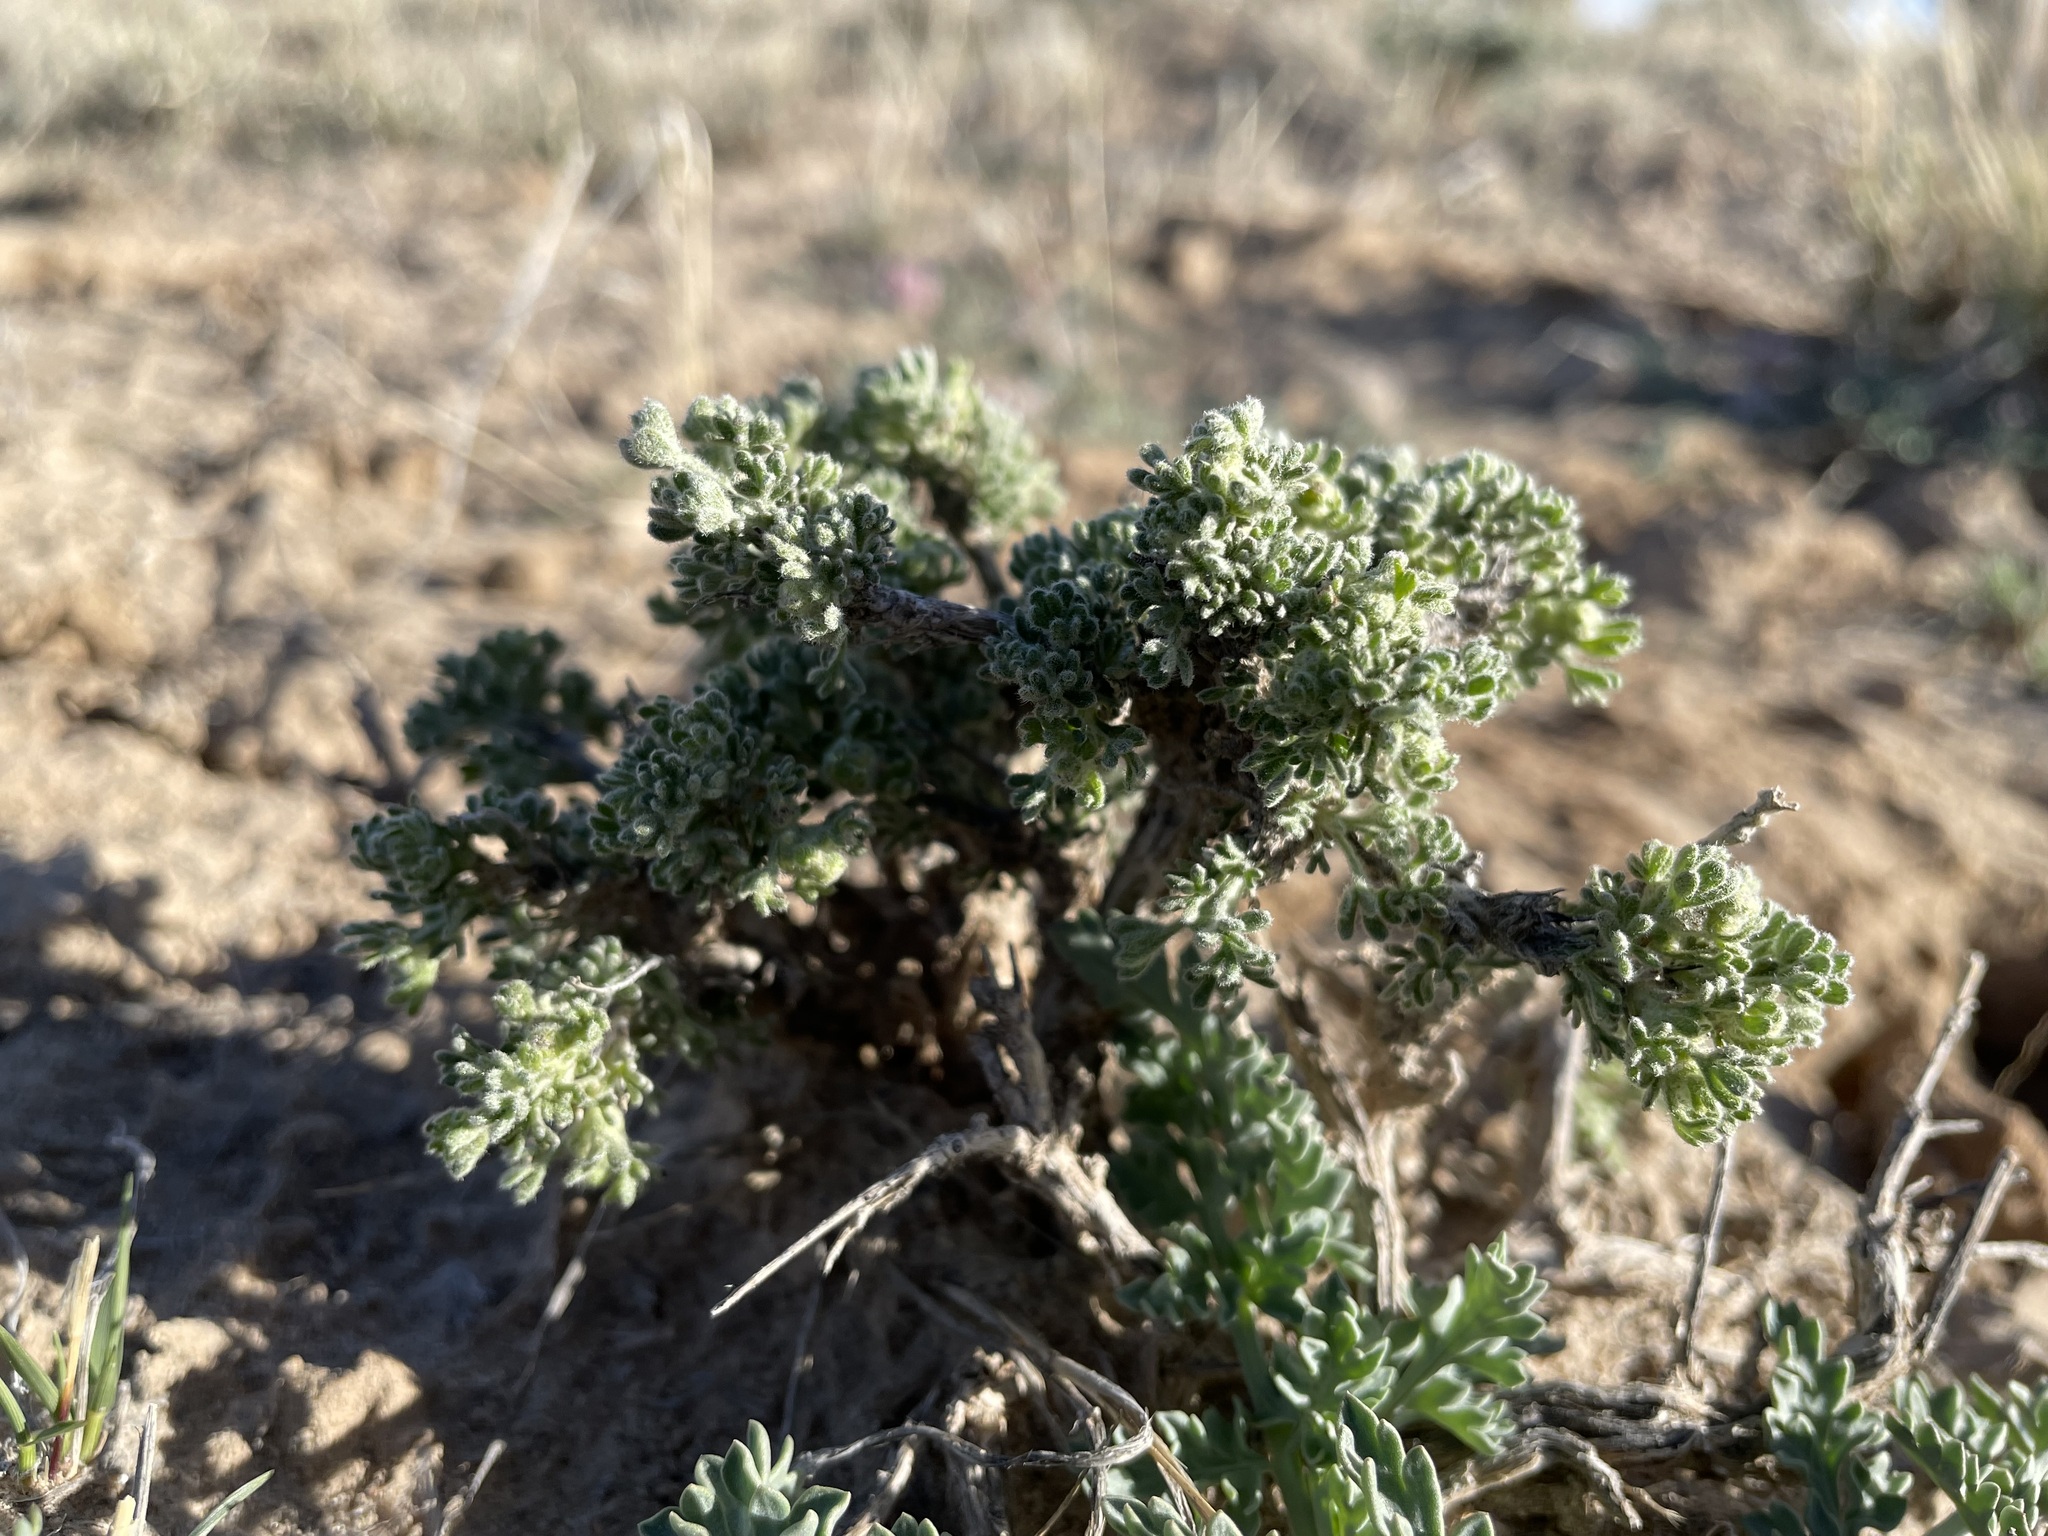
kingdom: Plantae
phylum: Tracheophyta
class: Magnoliopsida
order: Asterales
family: Asteraceae
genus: Artemisia
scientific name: Artemisia spinescens
